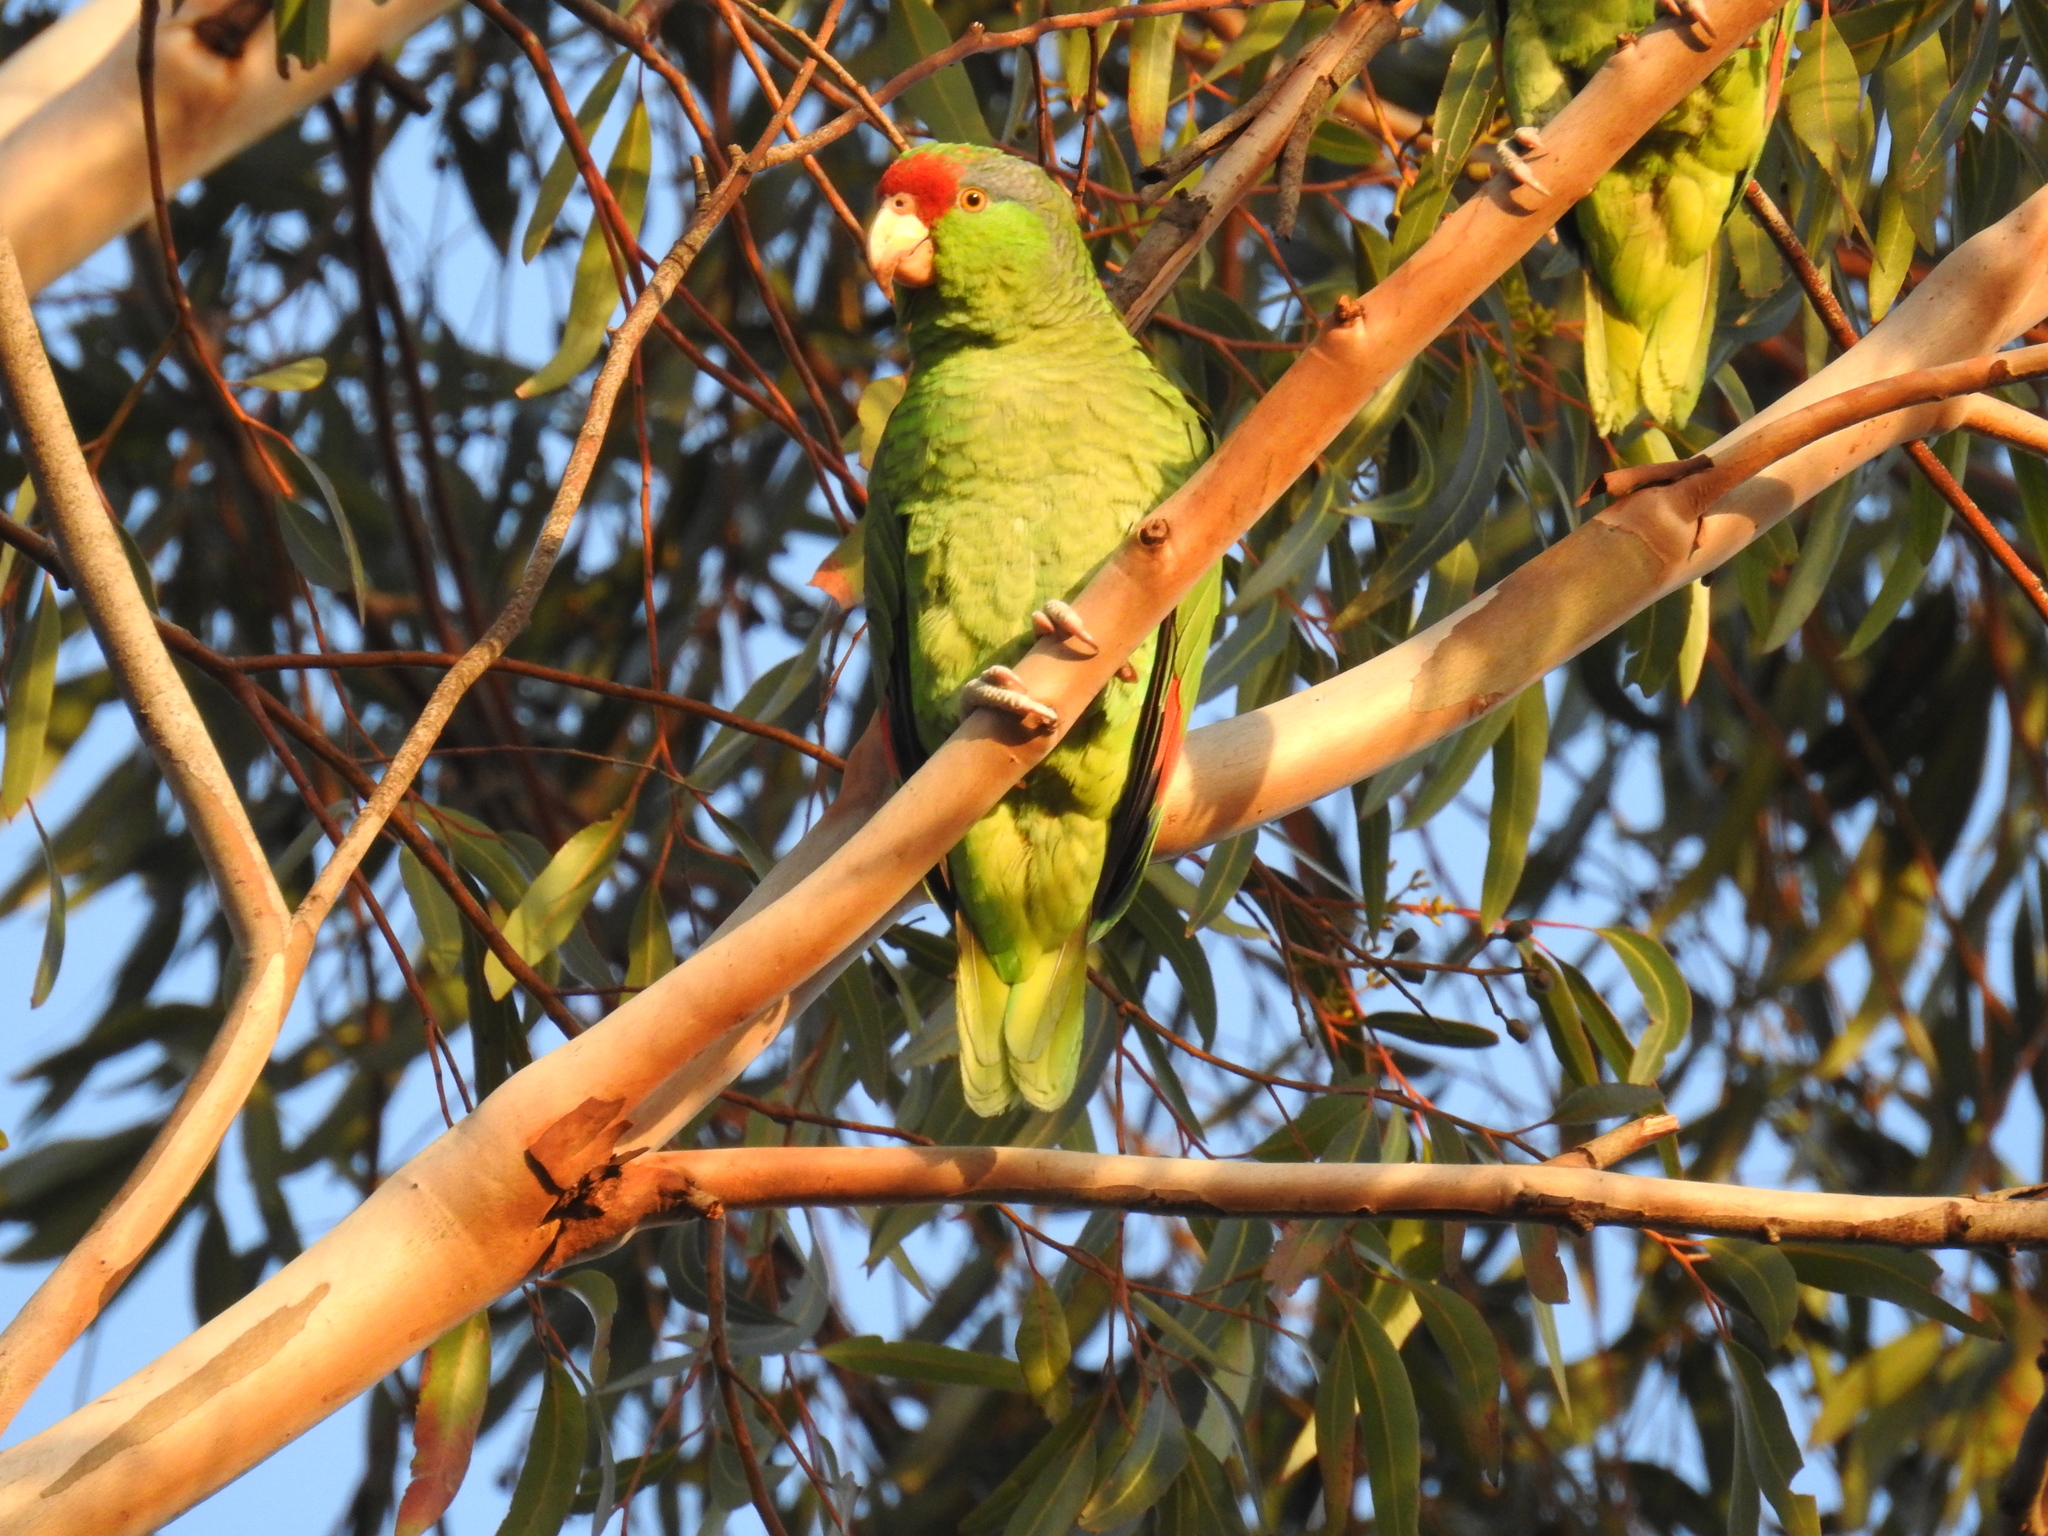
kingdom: Animalia
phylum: Chordata
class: Aves
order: Psittaciformes
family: Psittacidae
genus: Amazona
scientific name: Amazona viridigenalis
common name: Red-crowned amazon
